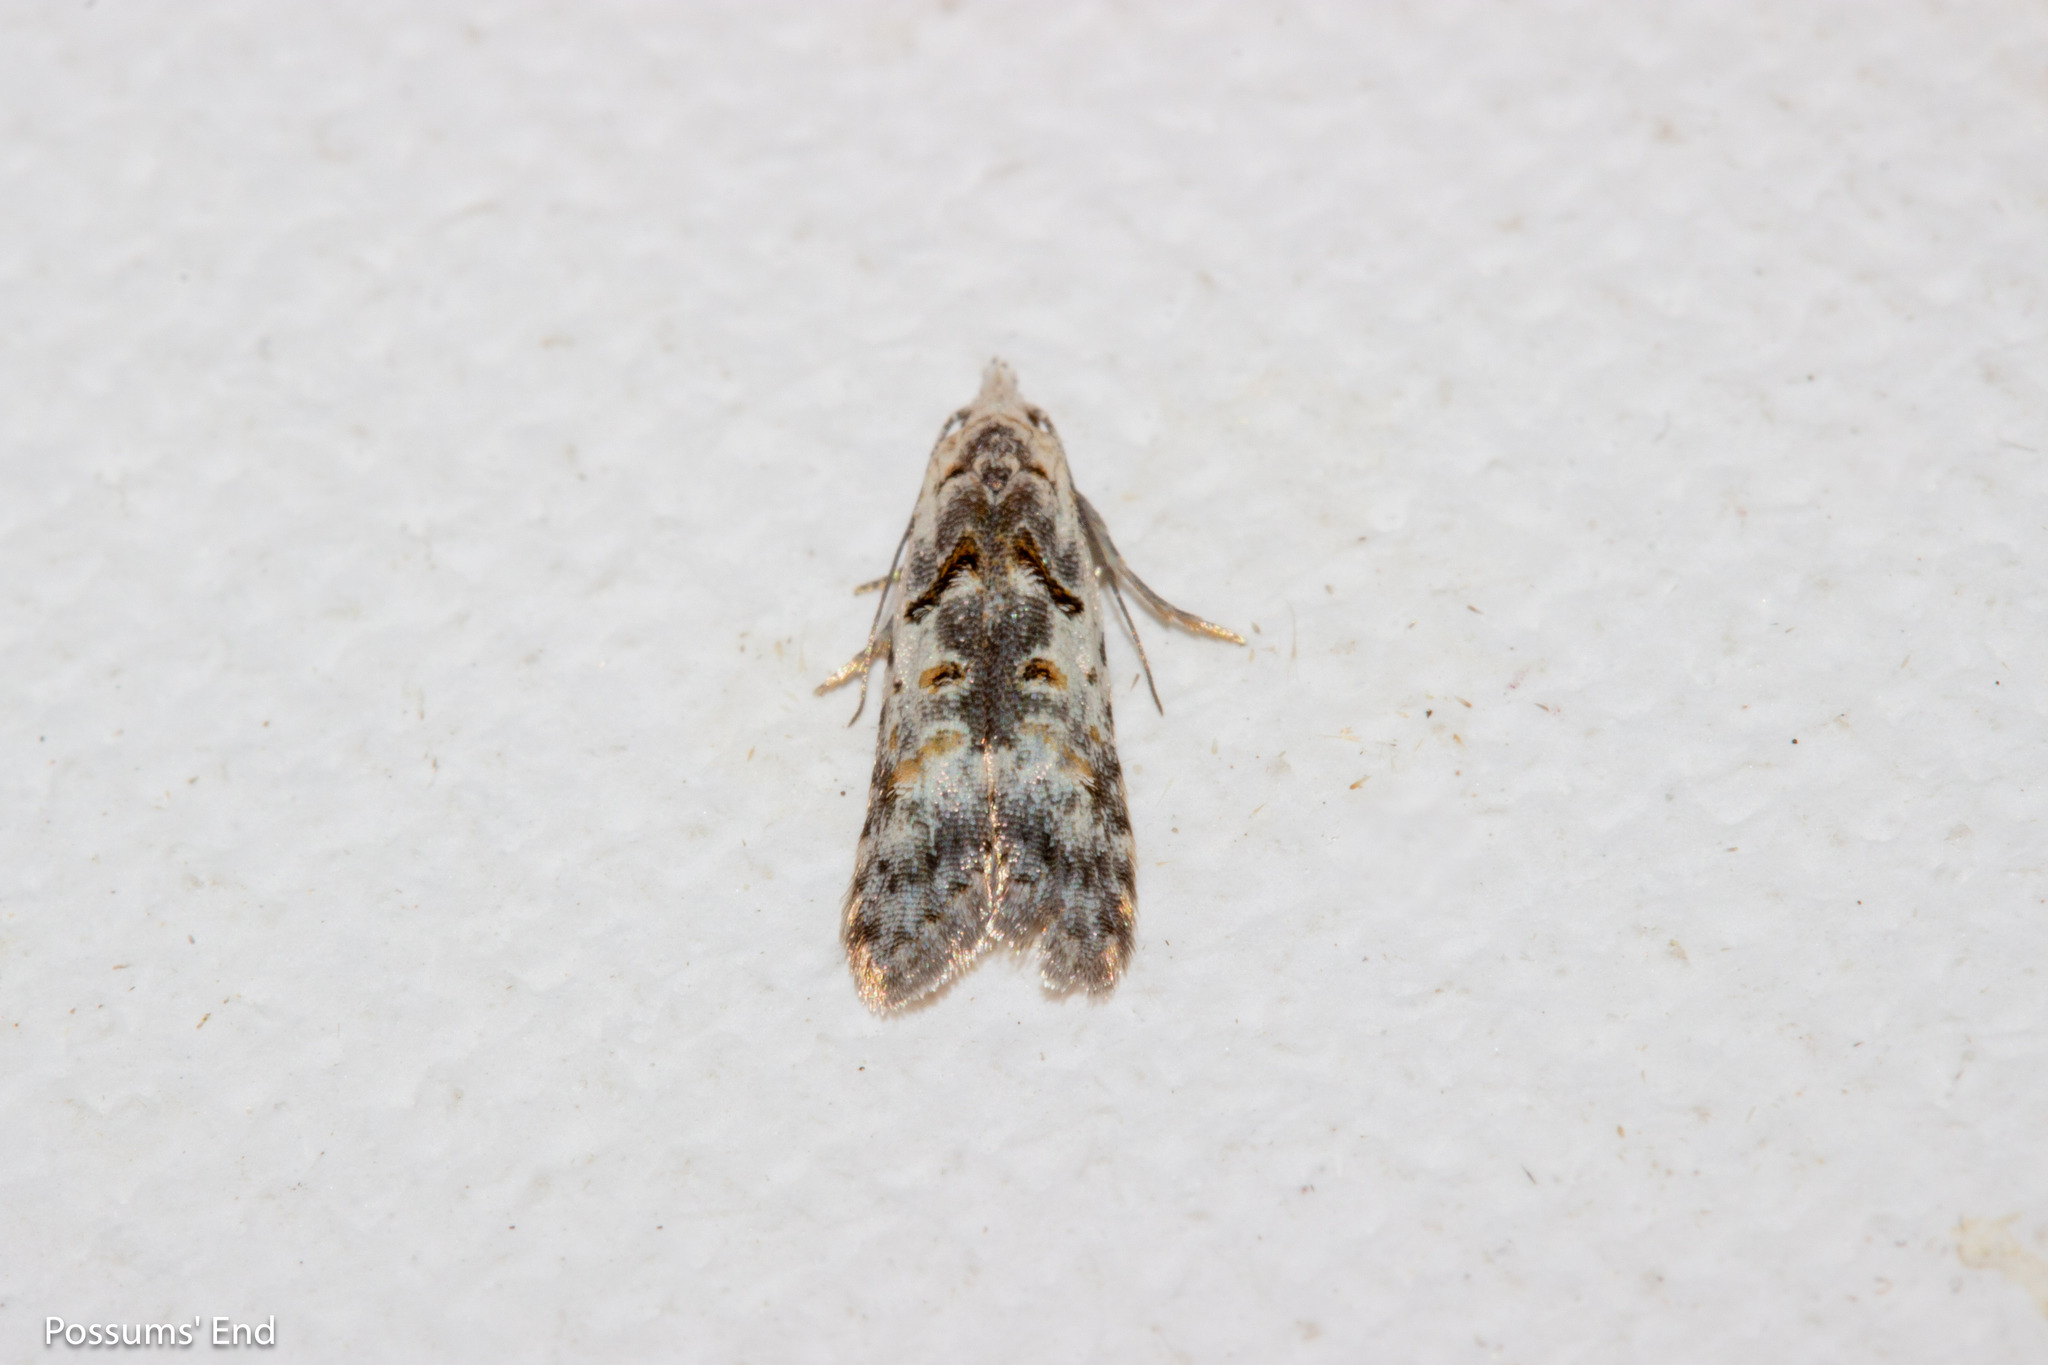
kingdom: Animalia
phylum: Arthropoda
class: Insecta
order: Lepidoptera
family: Carposinidae
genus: Carposina
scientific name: Carposina
